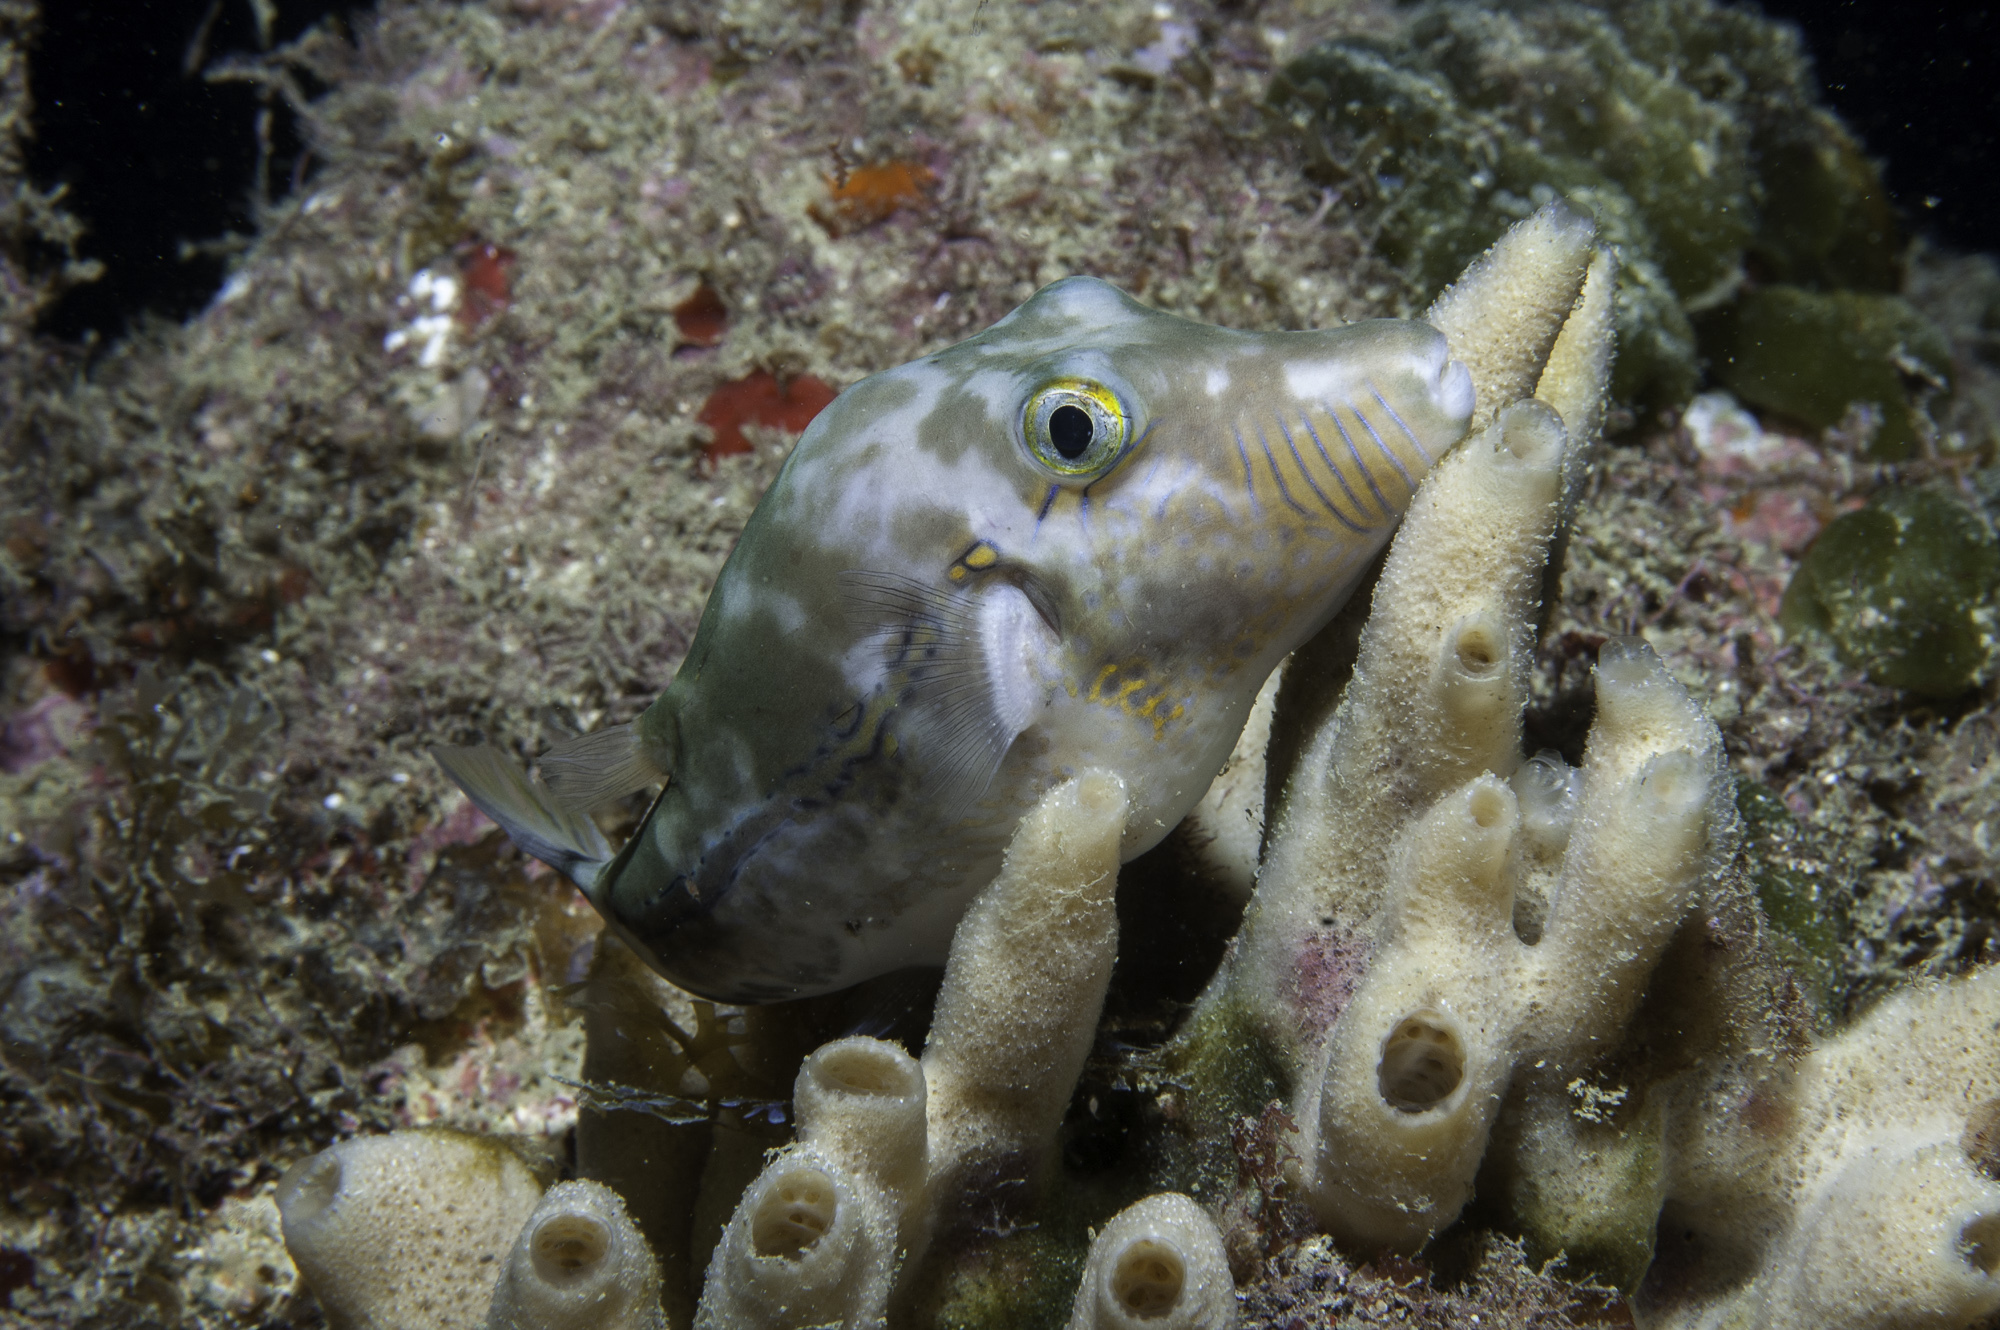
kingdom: Animalia
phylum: Chordata
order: Tetraodontiformes
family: Tetraodontidae
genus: Canthigaster
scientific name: Canthigaster figueiredoi
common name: Southern atlantic sharpnose-puffer
